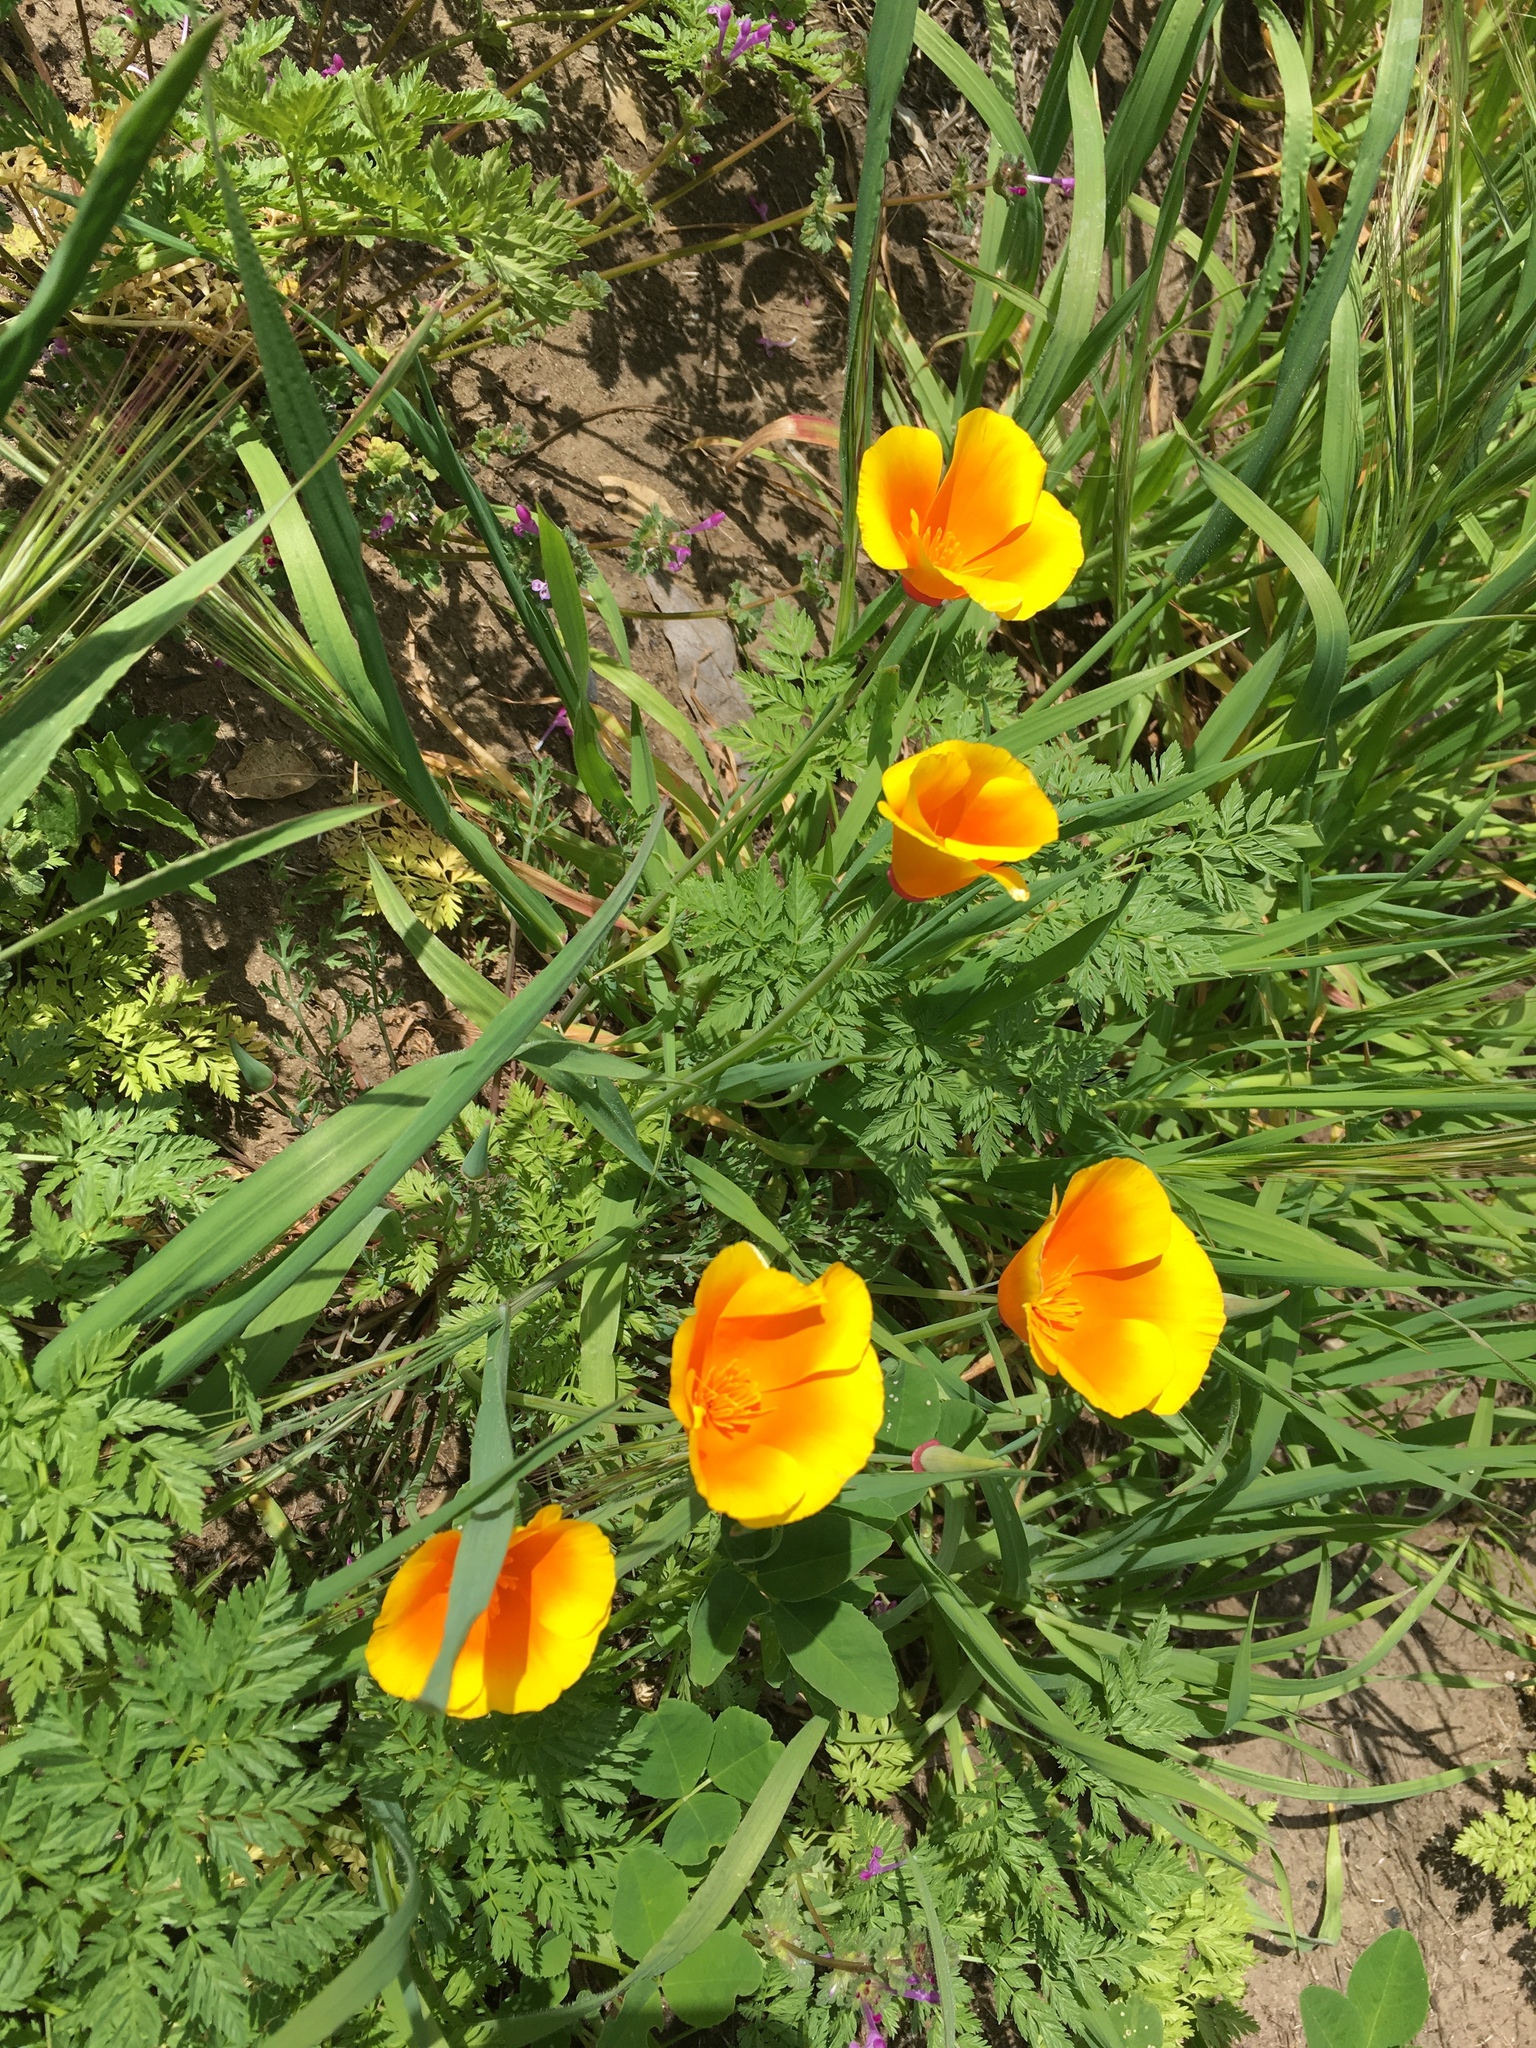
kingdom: Plantae
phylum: Tracheophyta
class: Magnoliopsida
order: Ranunculales
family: Papaveraceae
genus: Eschscholzia
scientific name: Eschscholzia californica
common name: California poppy
